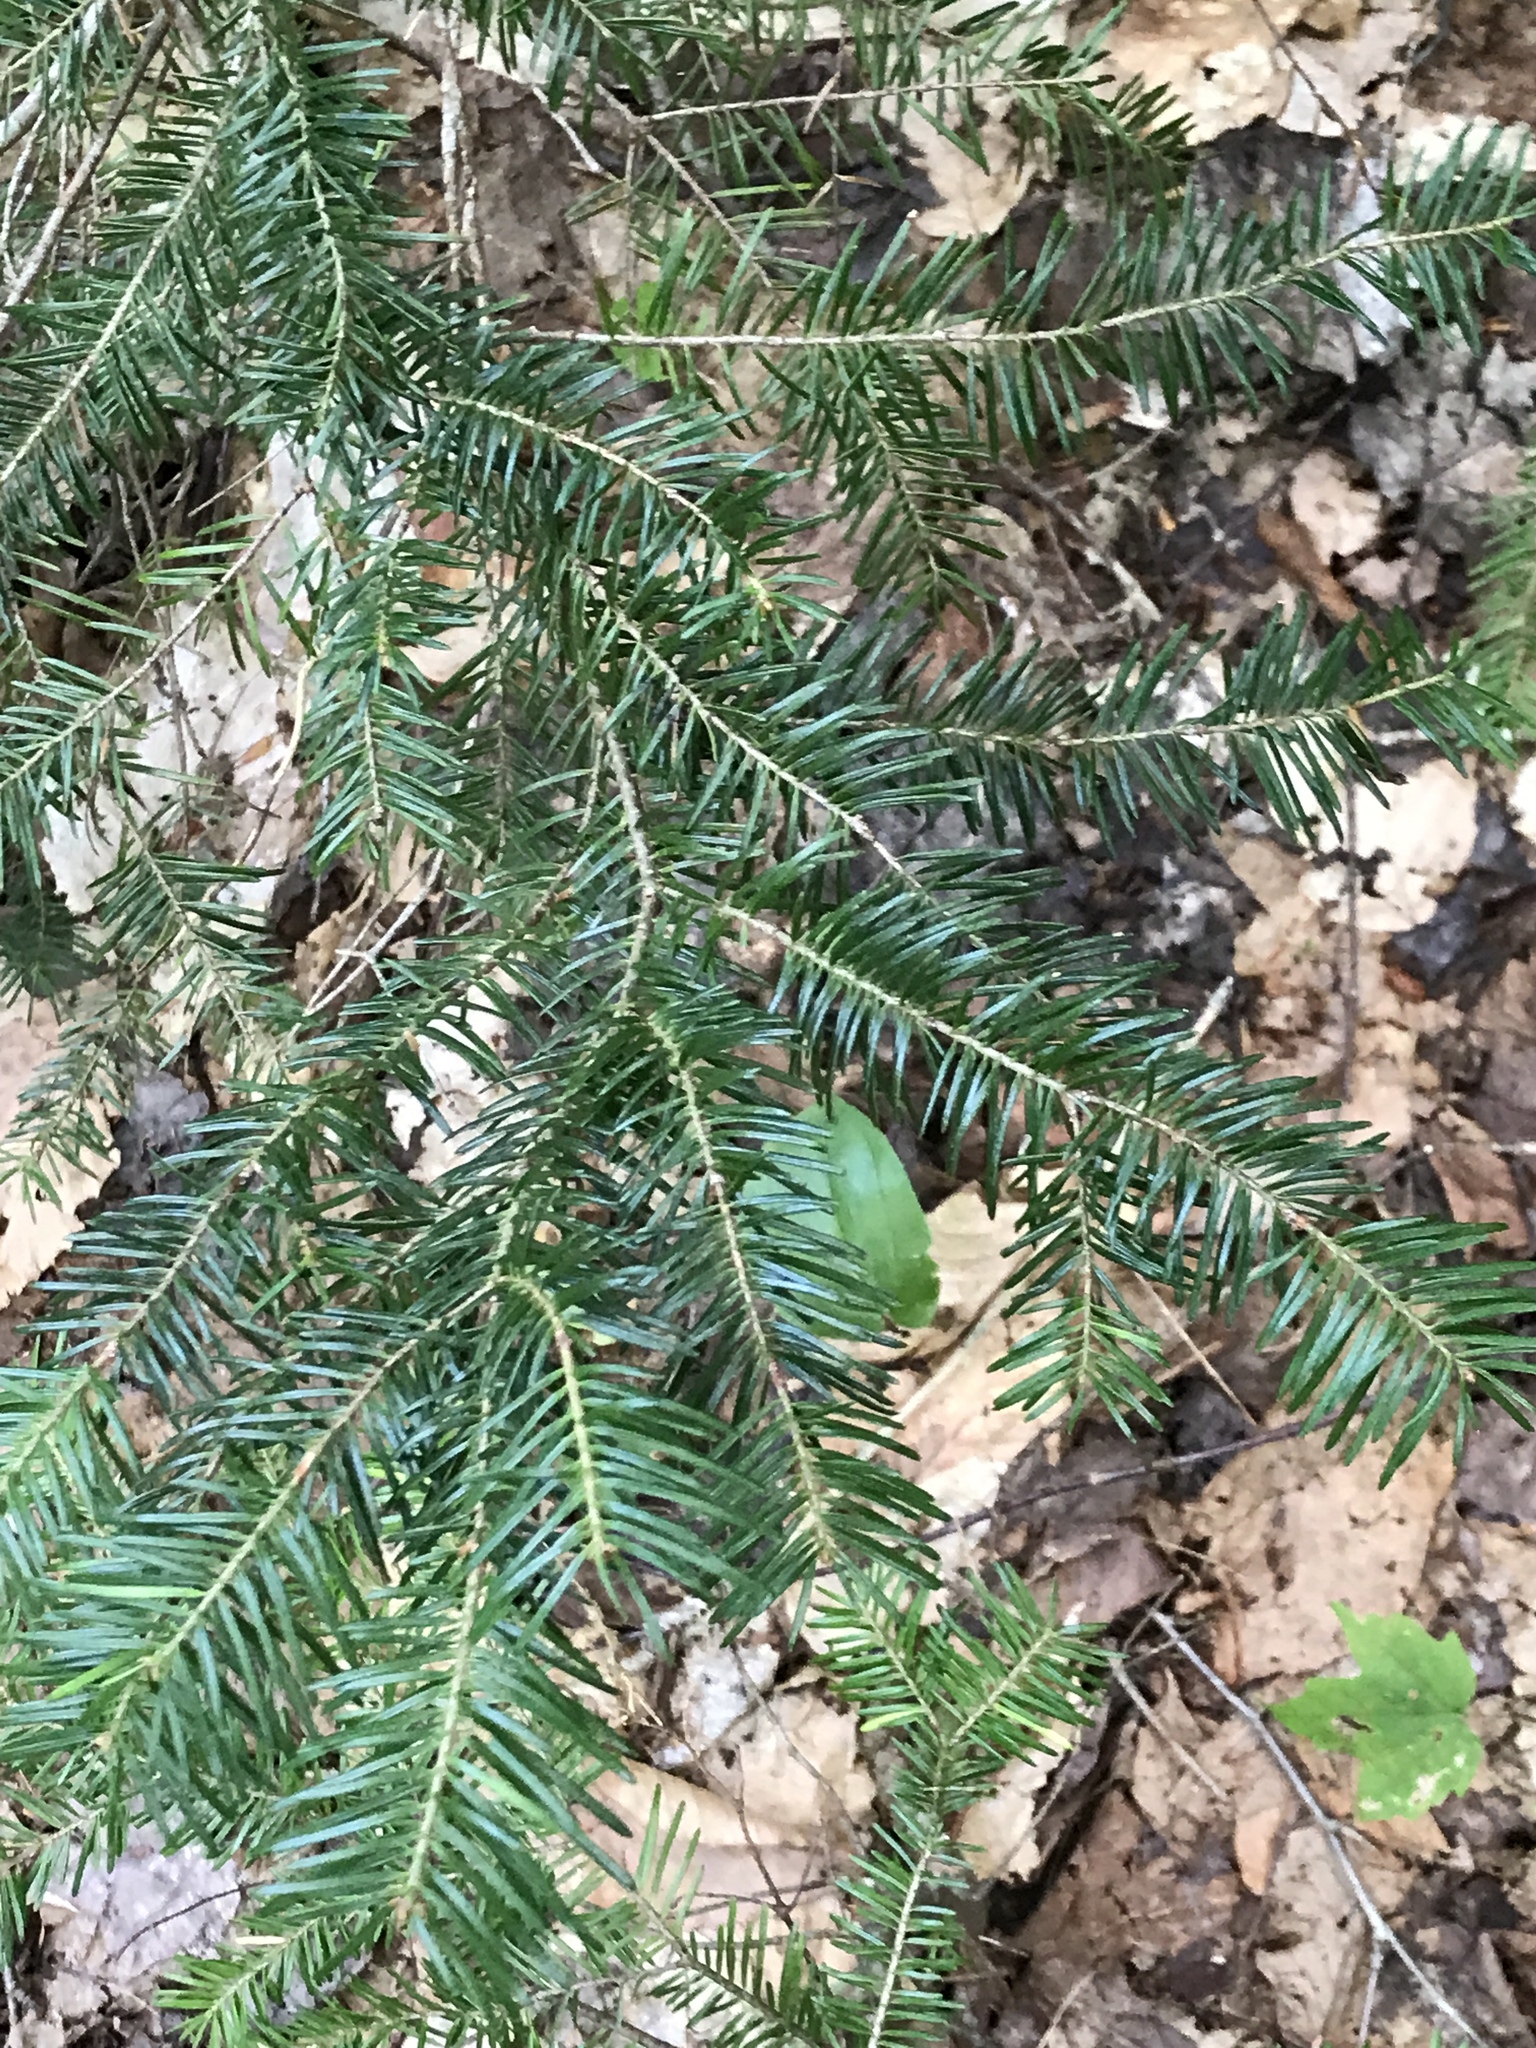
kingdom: Plantae
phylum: Tracheophyta
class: Pinopsida
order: Pinales
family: Pinaceae
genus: Abies
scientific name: Abies balsamea
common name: Balsam fir
